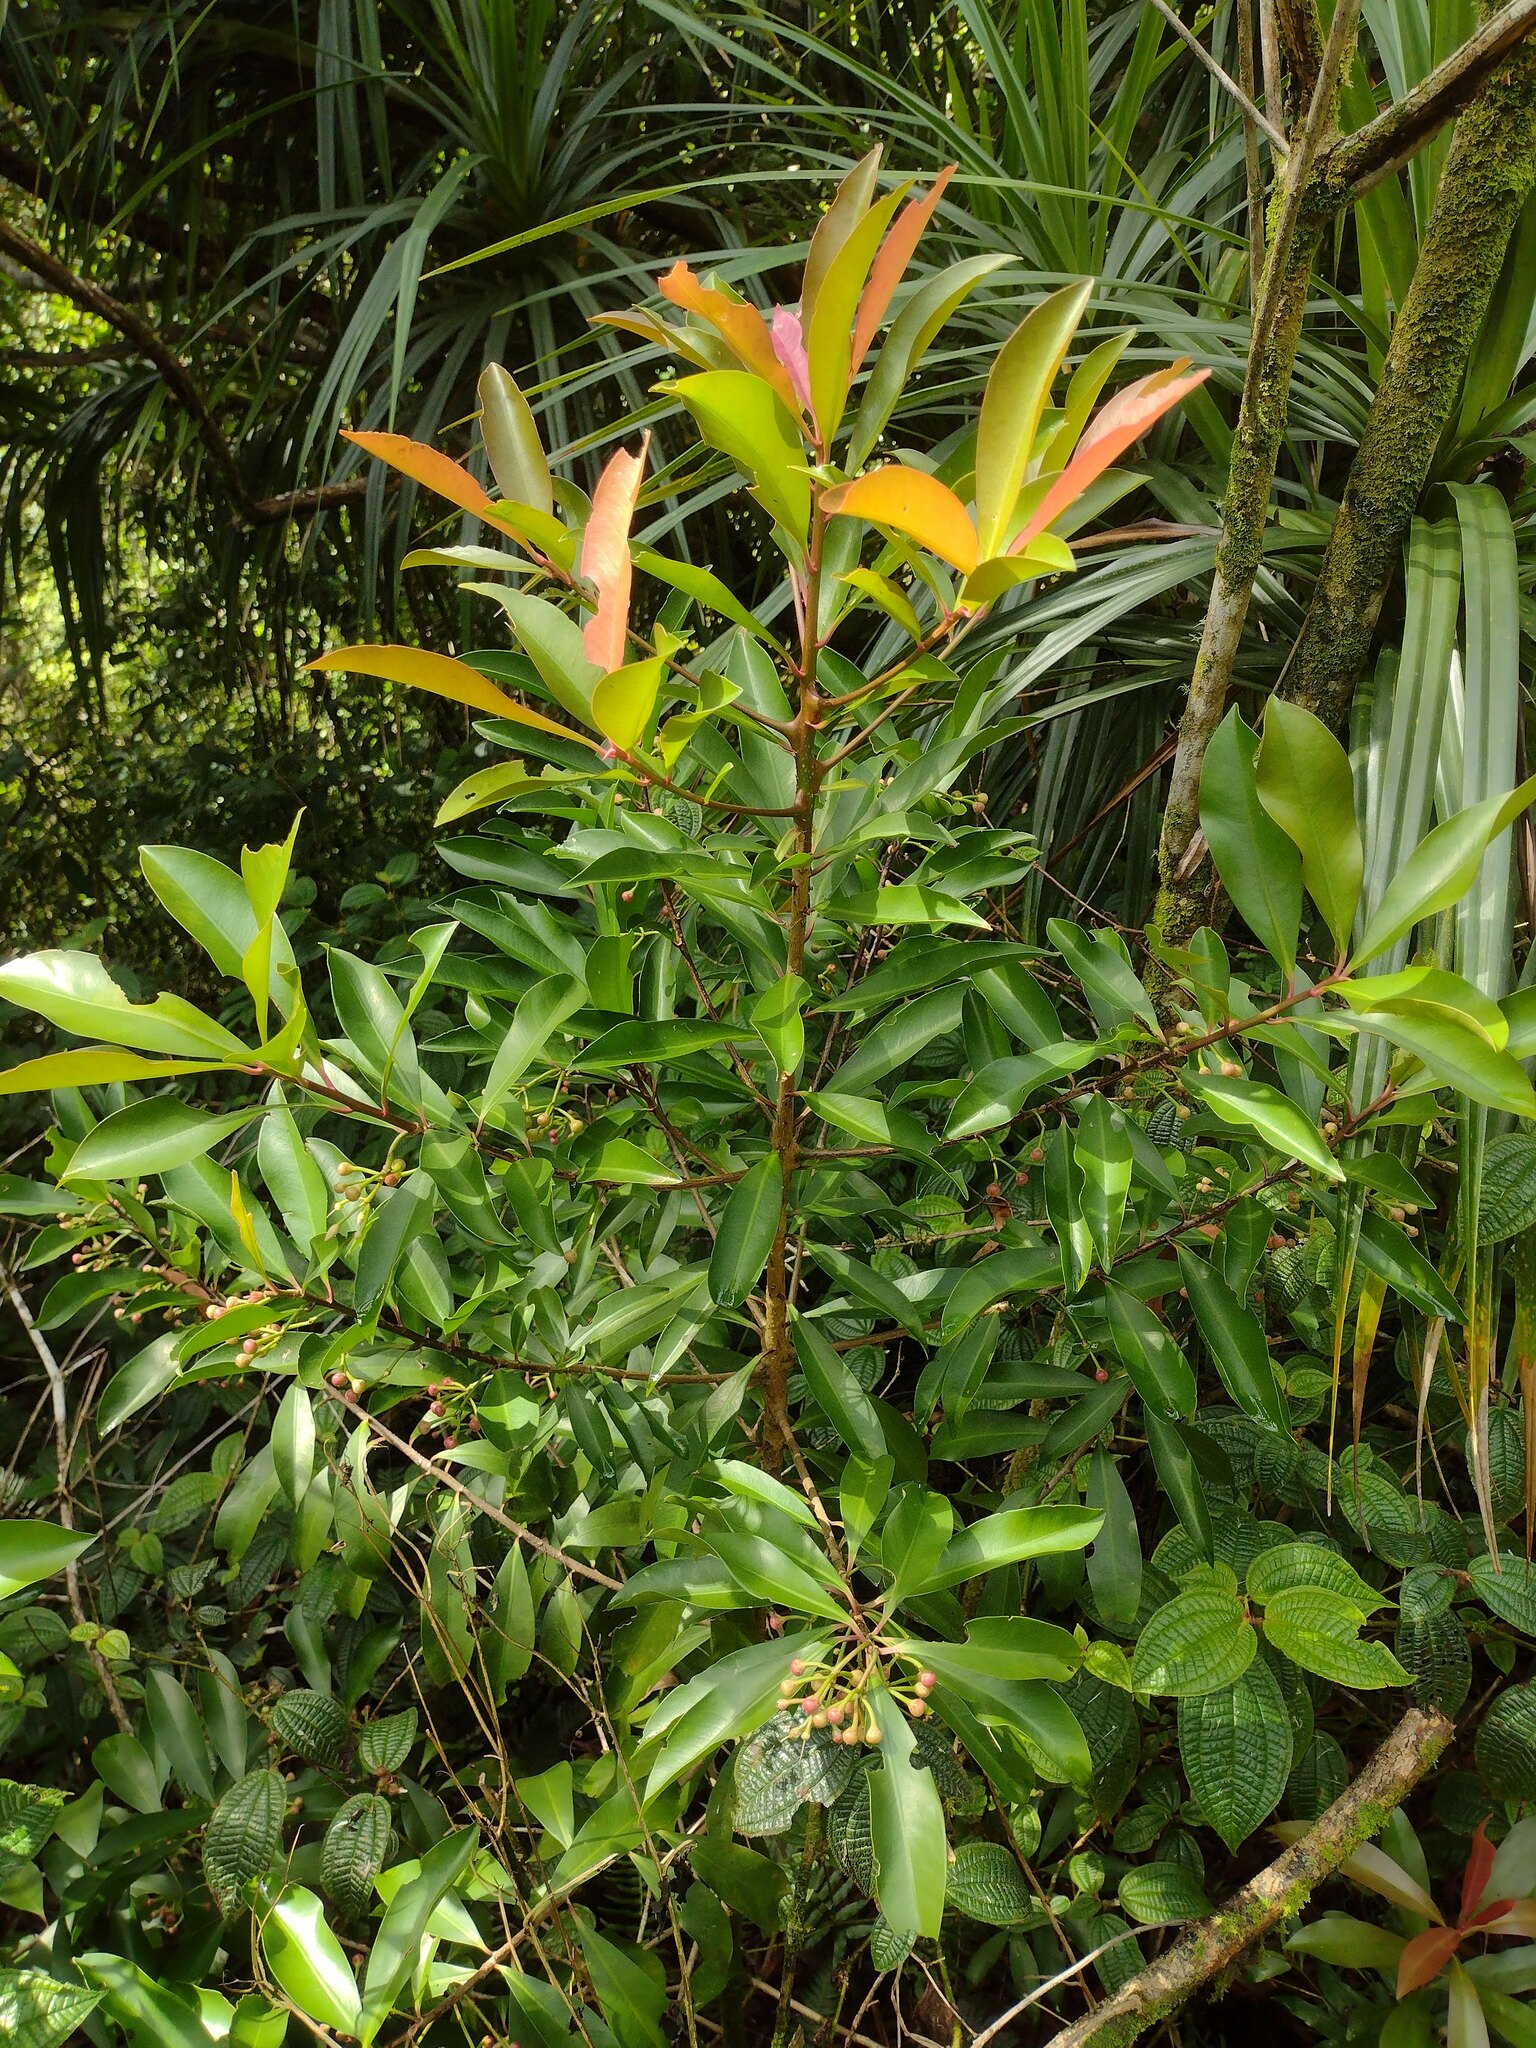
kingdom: Plantae
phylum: Tracheophyta
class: Magnoliopsida
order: Ericales
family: Primulaceae
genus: Ardisia
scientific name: Ardisia elliptica
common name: Shoebutton
